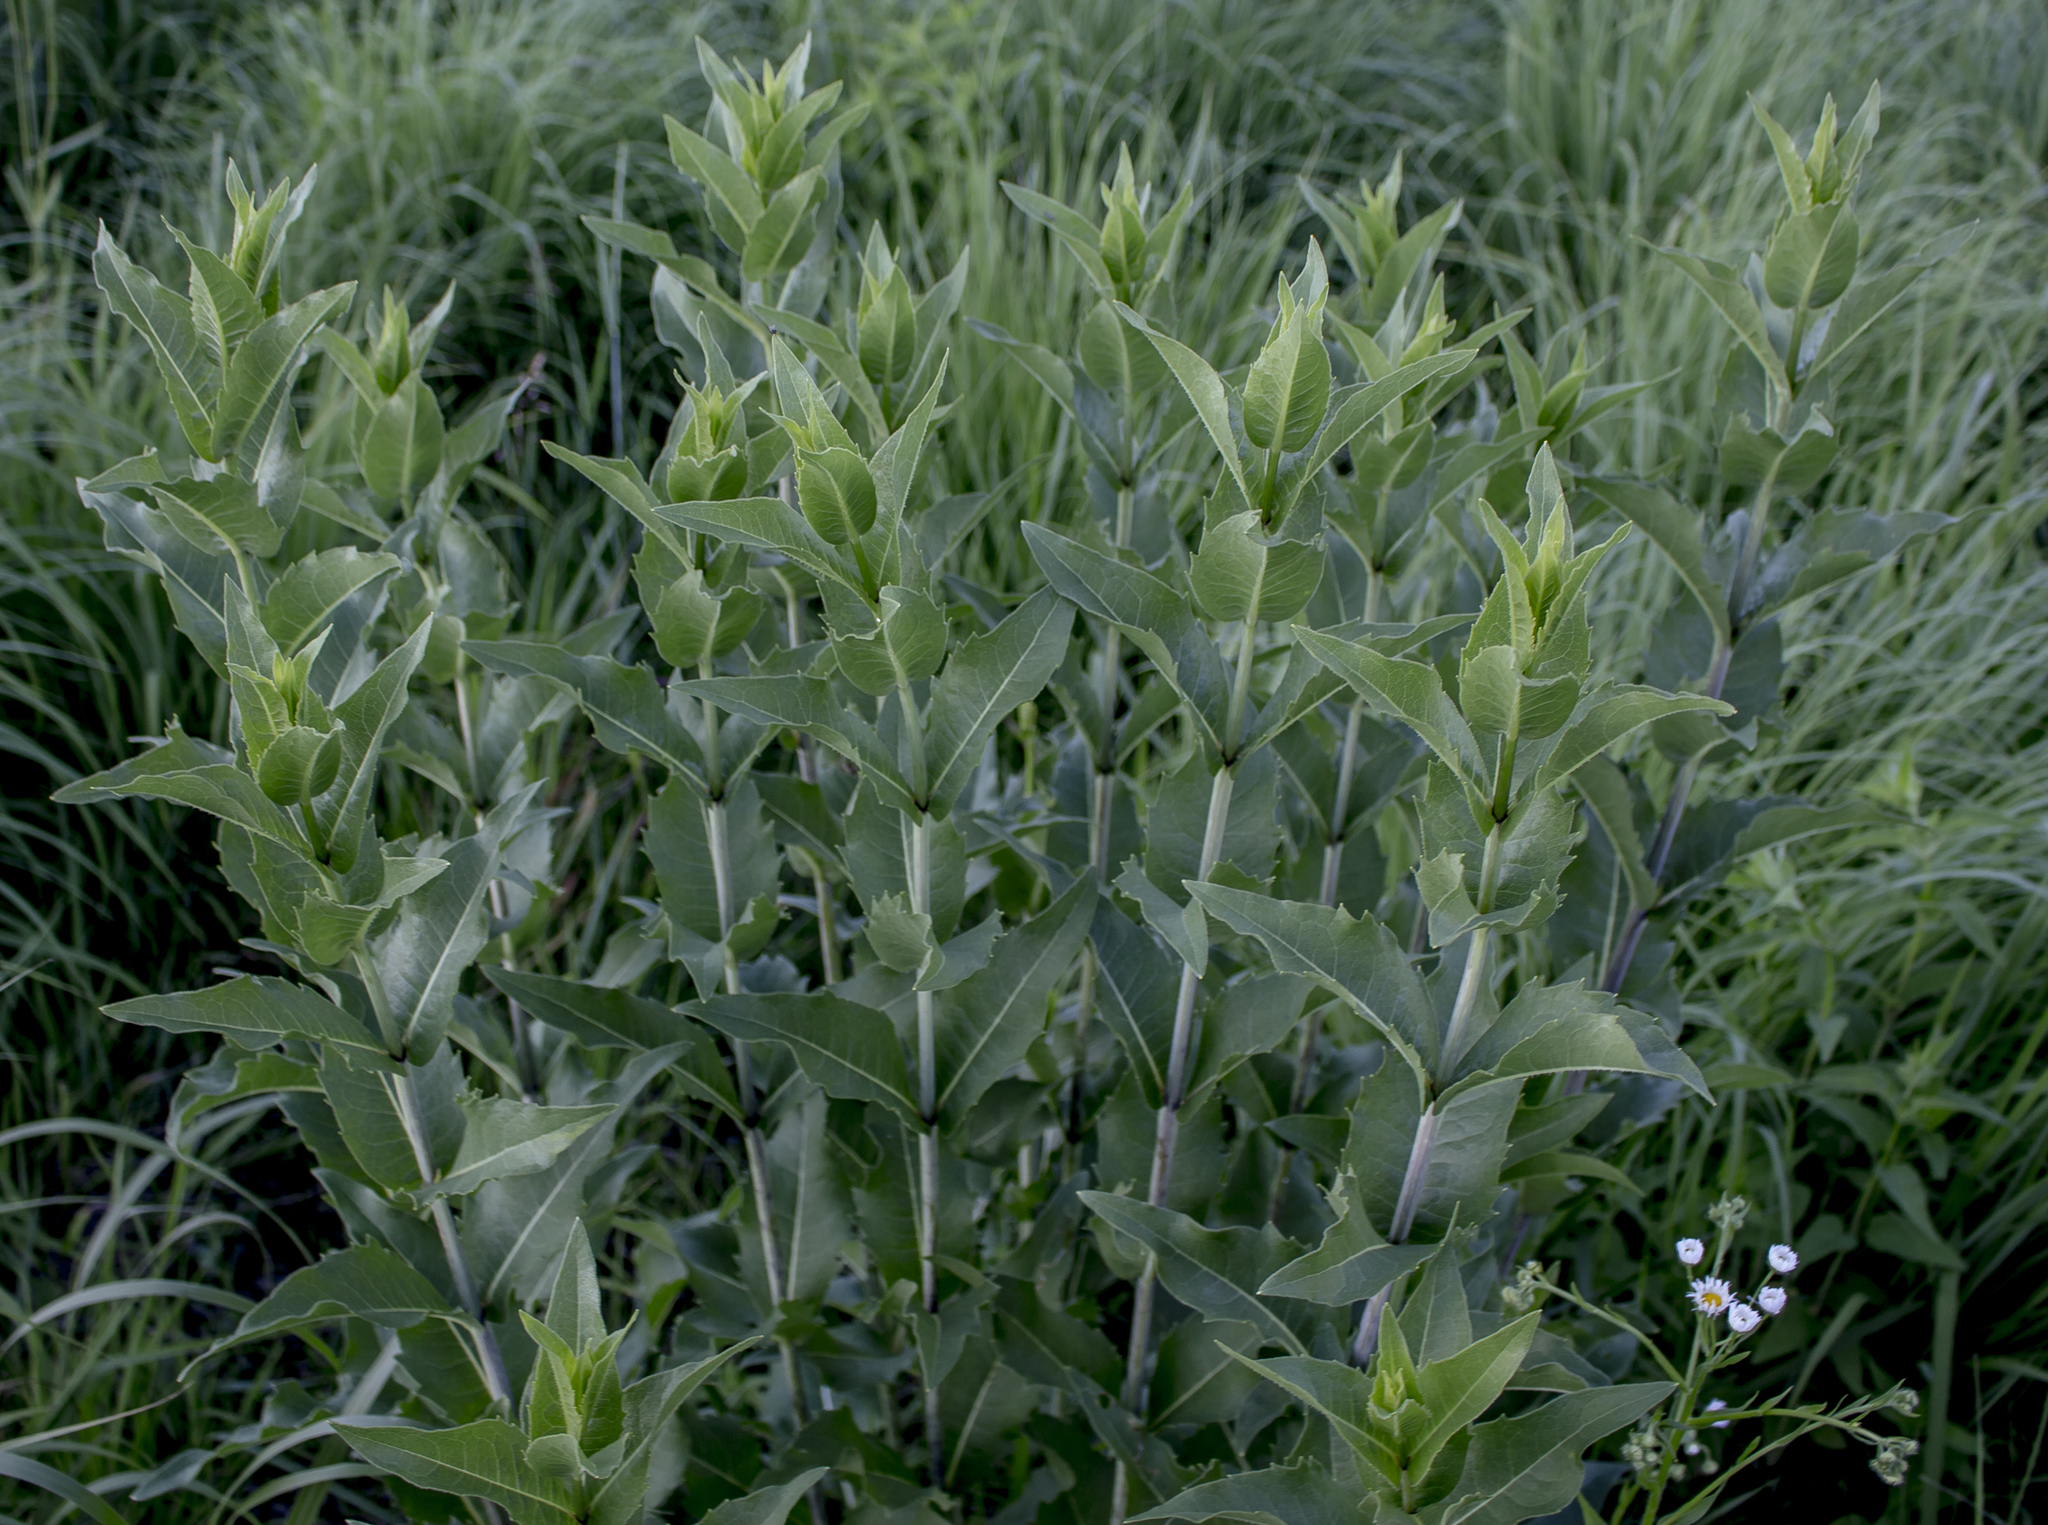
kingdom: Plantae
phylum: Tracheophyta
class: Magnoliopsida
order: Asterales
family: Asteraceae
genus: Silphium
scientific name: Silphium integrifolium
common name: Whole-leaf rosinweed
